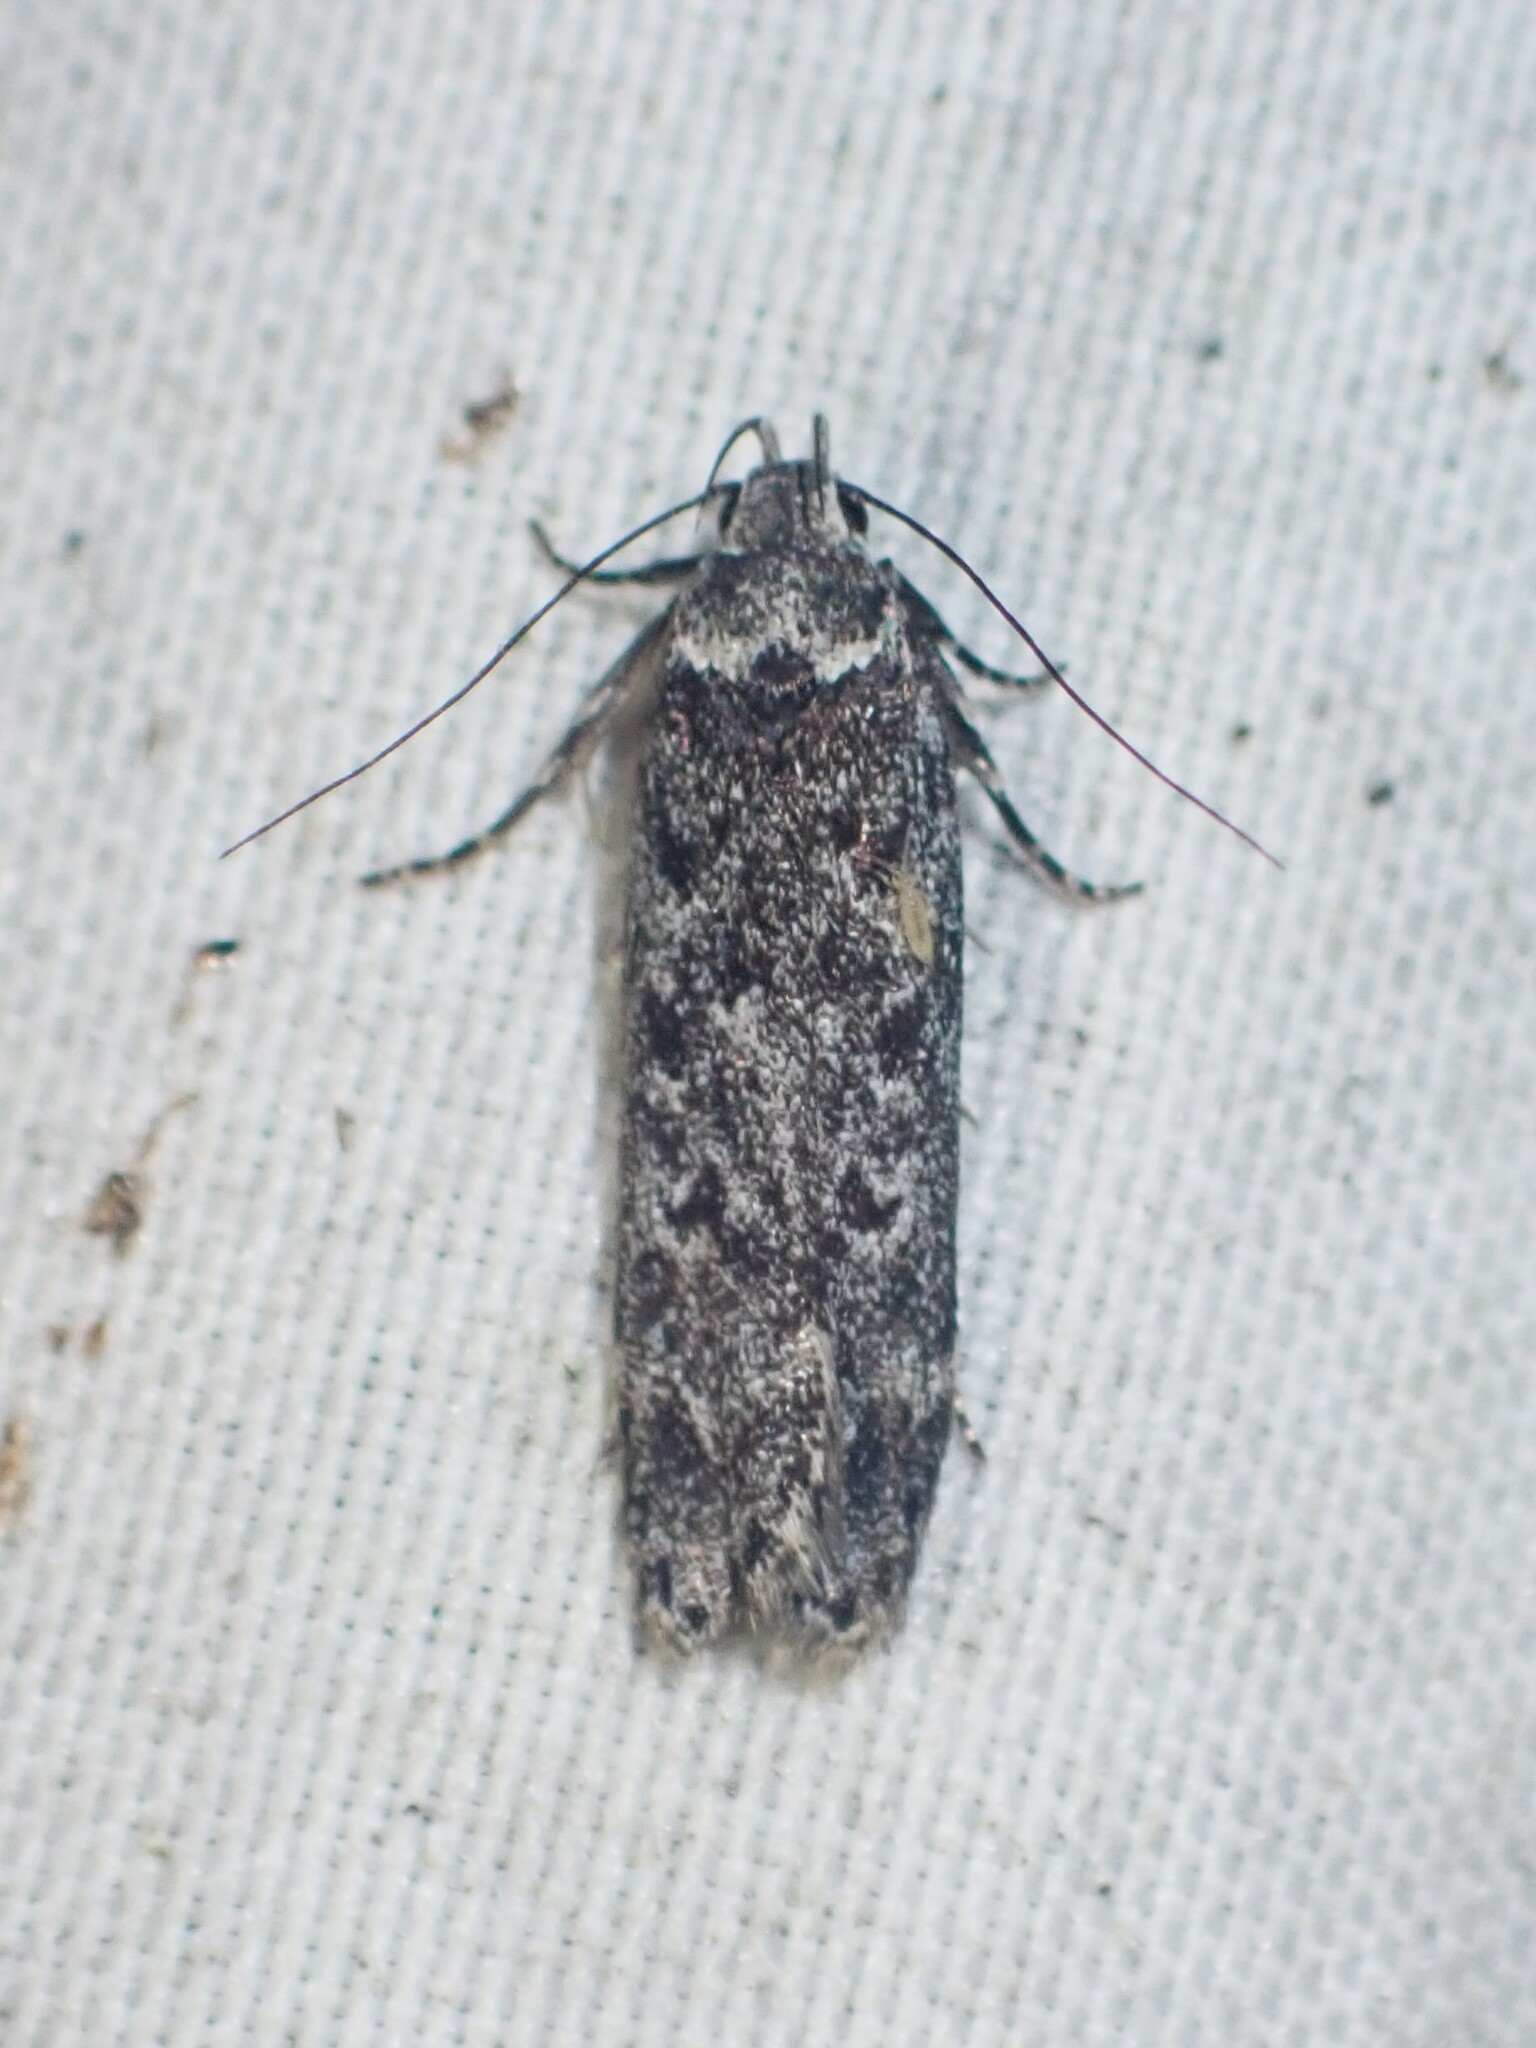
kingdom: Animalia
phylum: Arthropoda
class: Insecta
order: Lepidoptera
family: Gelechiidae
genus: Anacampsis
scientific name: Anacampsis niveopulvella
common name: Pale-headed aspen leafroller moth
